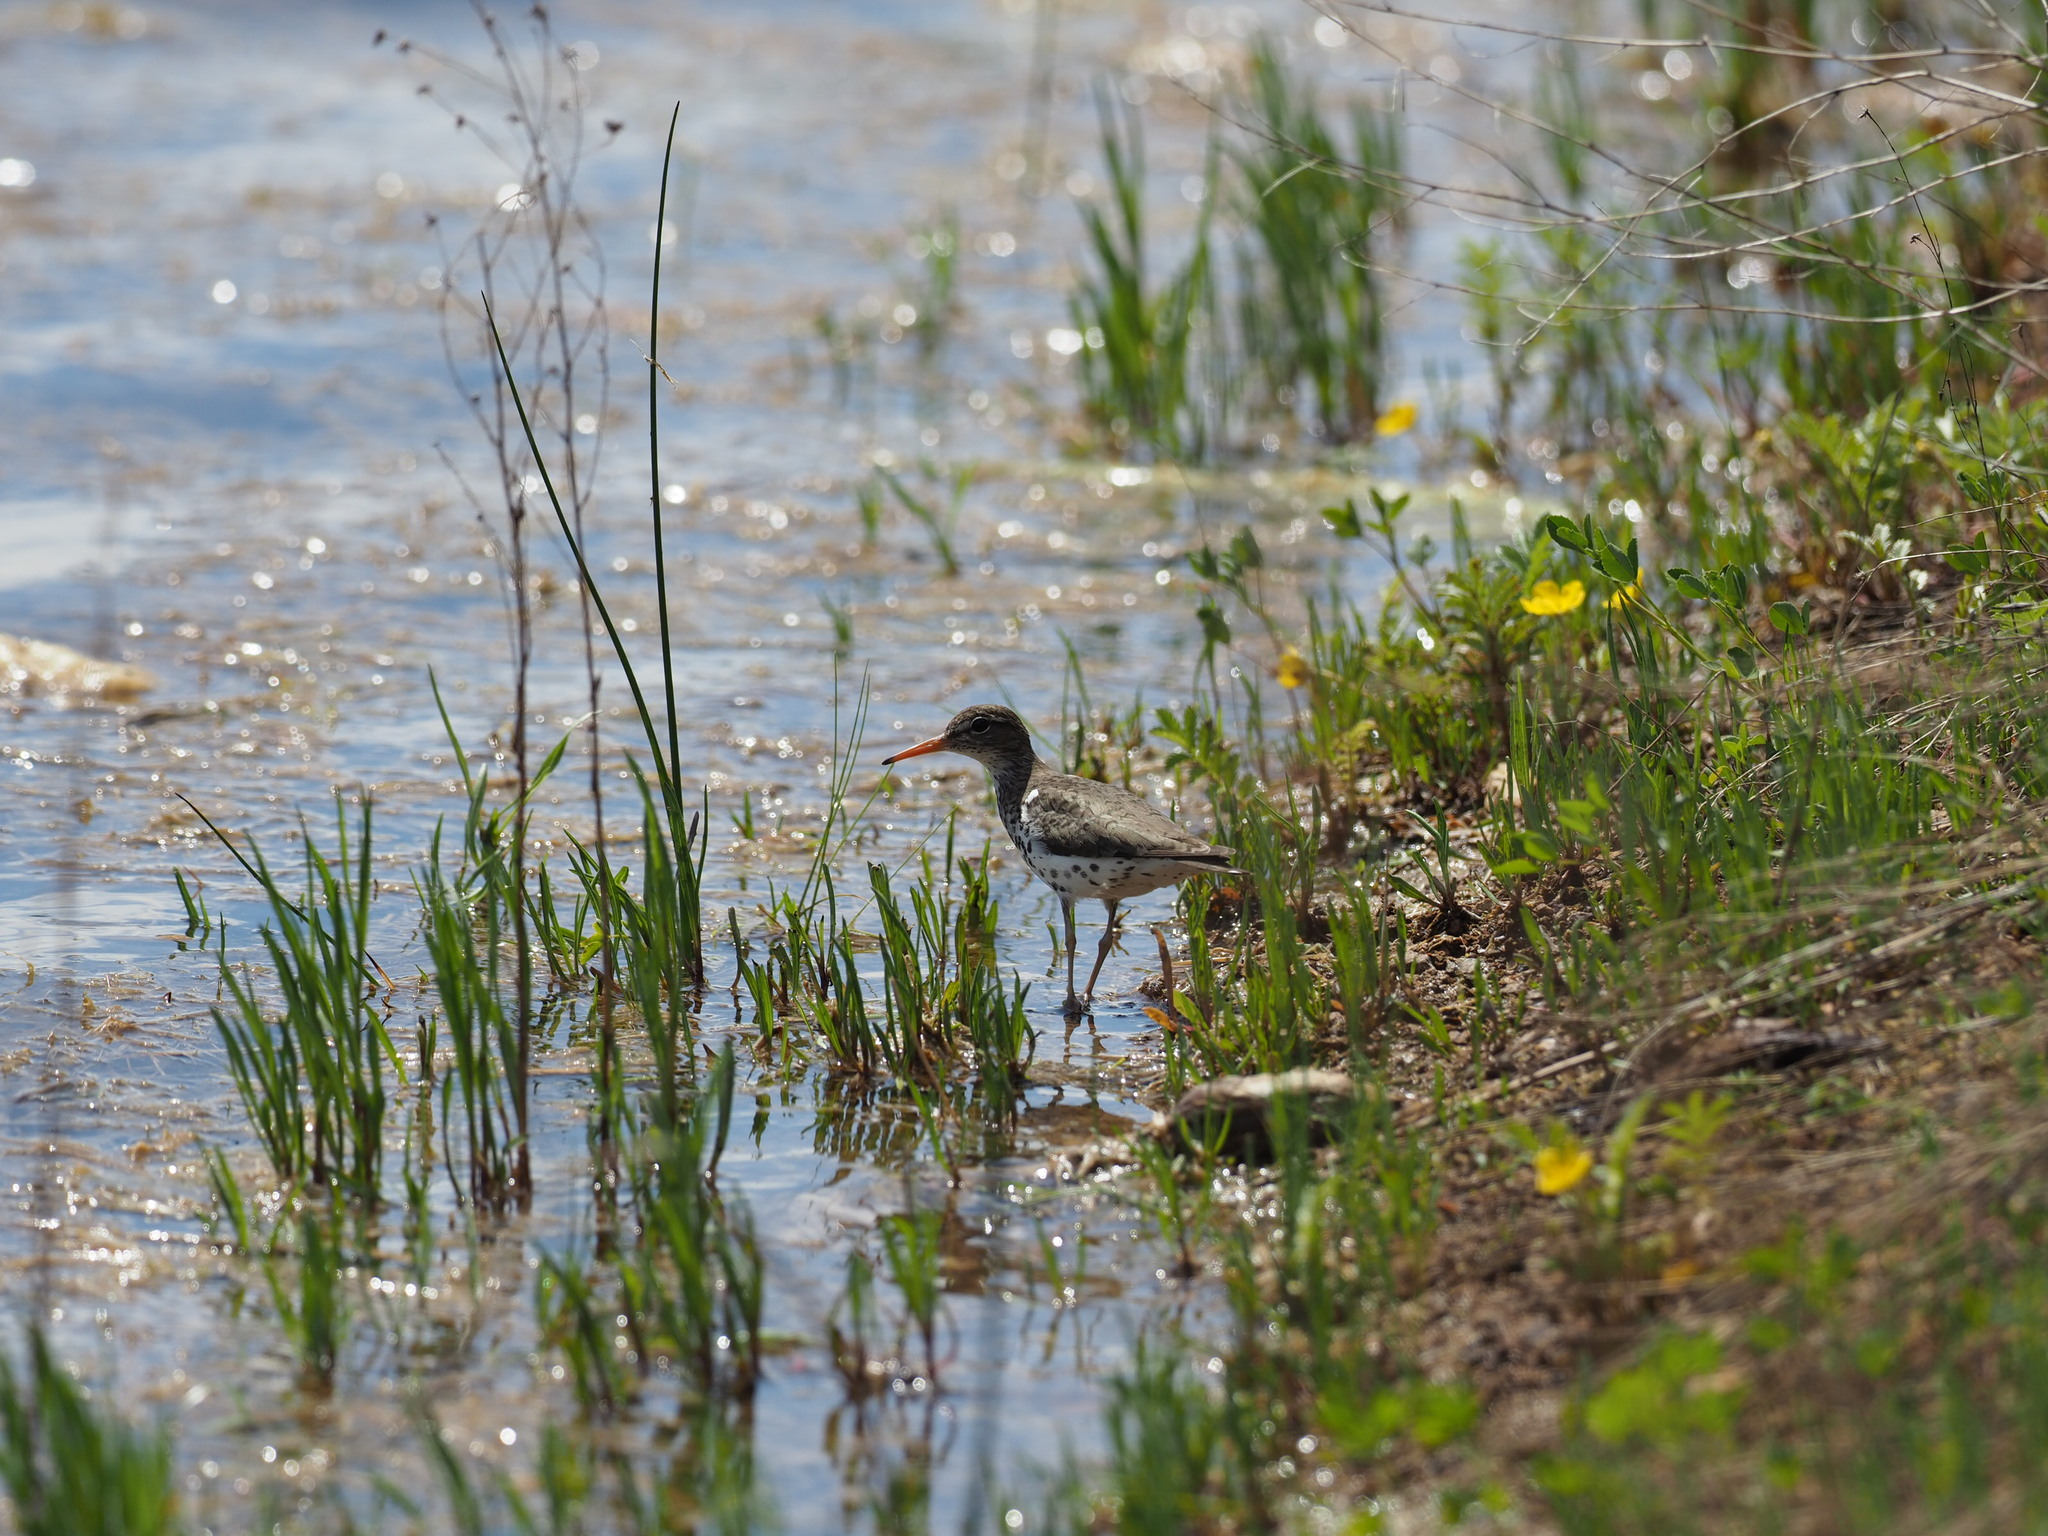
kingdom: Animalia
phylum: Chordata
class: Aves
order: Charadriiformes
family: Scolopacidae
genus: Actitis
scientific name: Actitis macularius
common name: Spotted sandpiper
